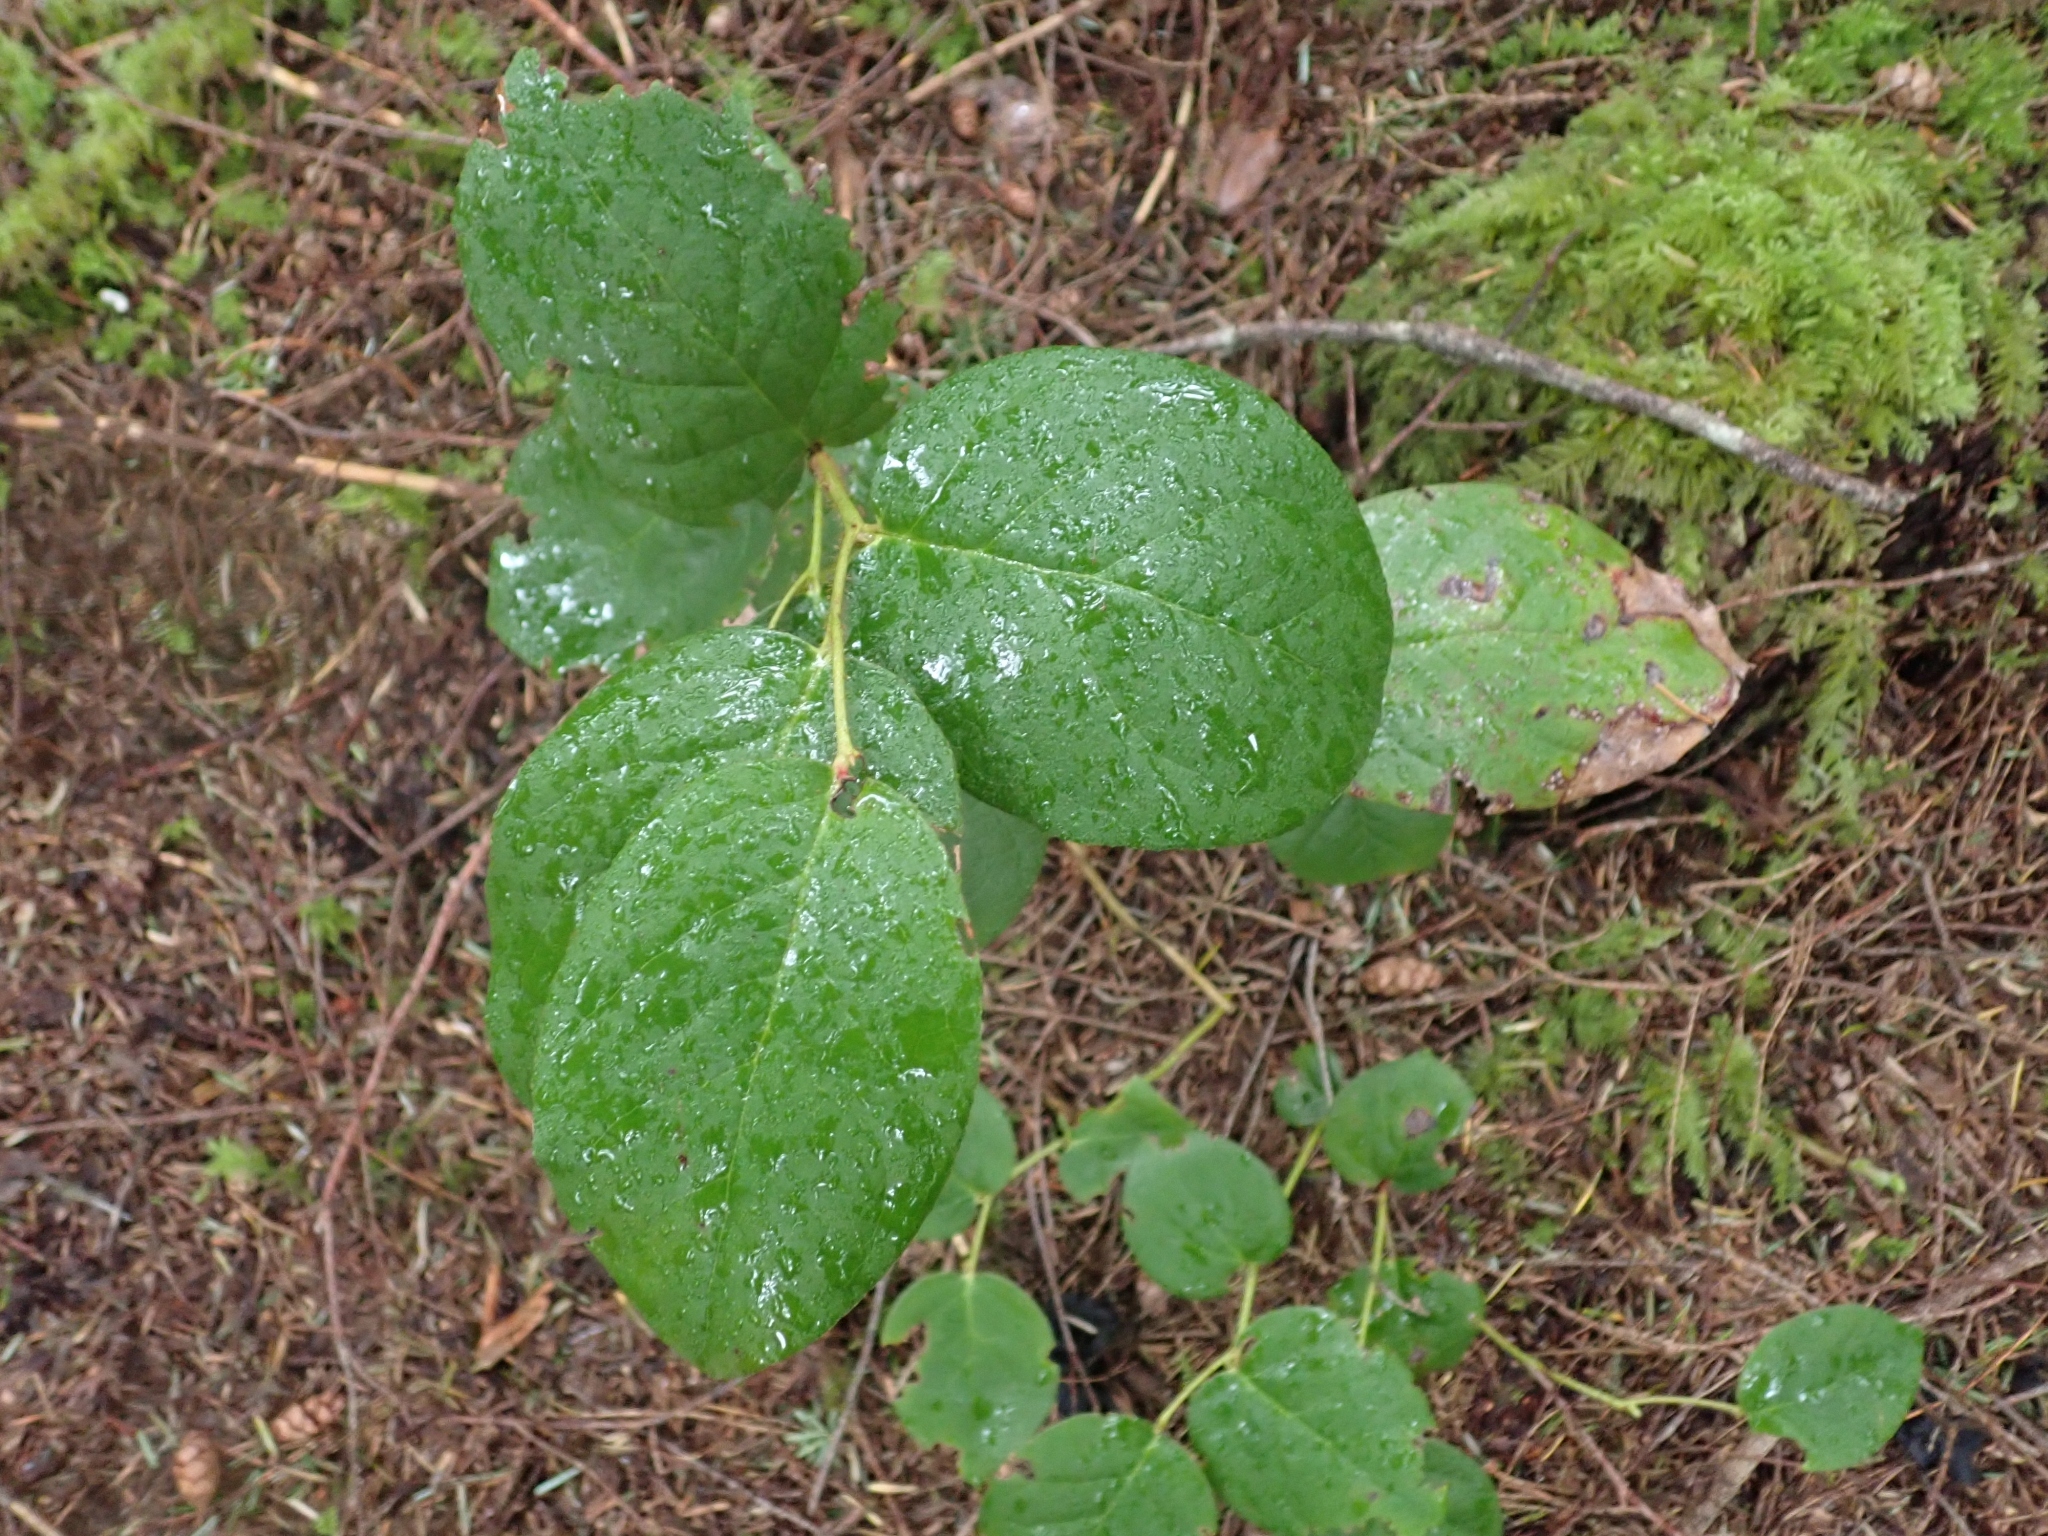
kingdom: Plantae
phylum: Tracheophyta
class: Magnoliopsida
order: Ericales
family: Ericaceae
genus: Gaultheria
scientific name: Gaultheria shallon
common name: Shallon
